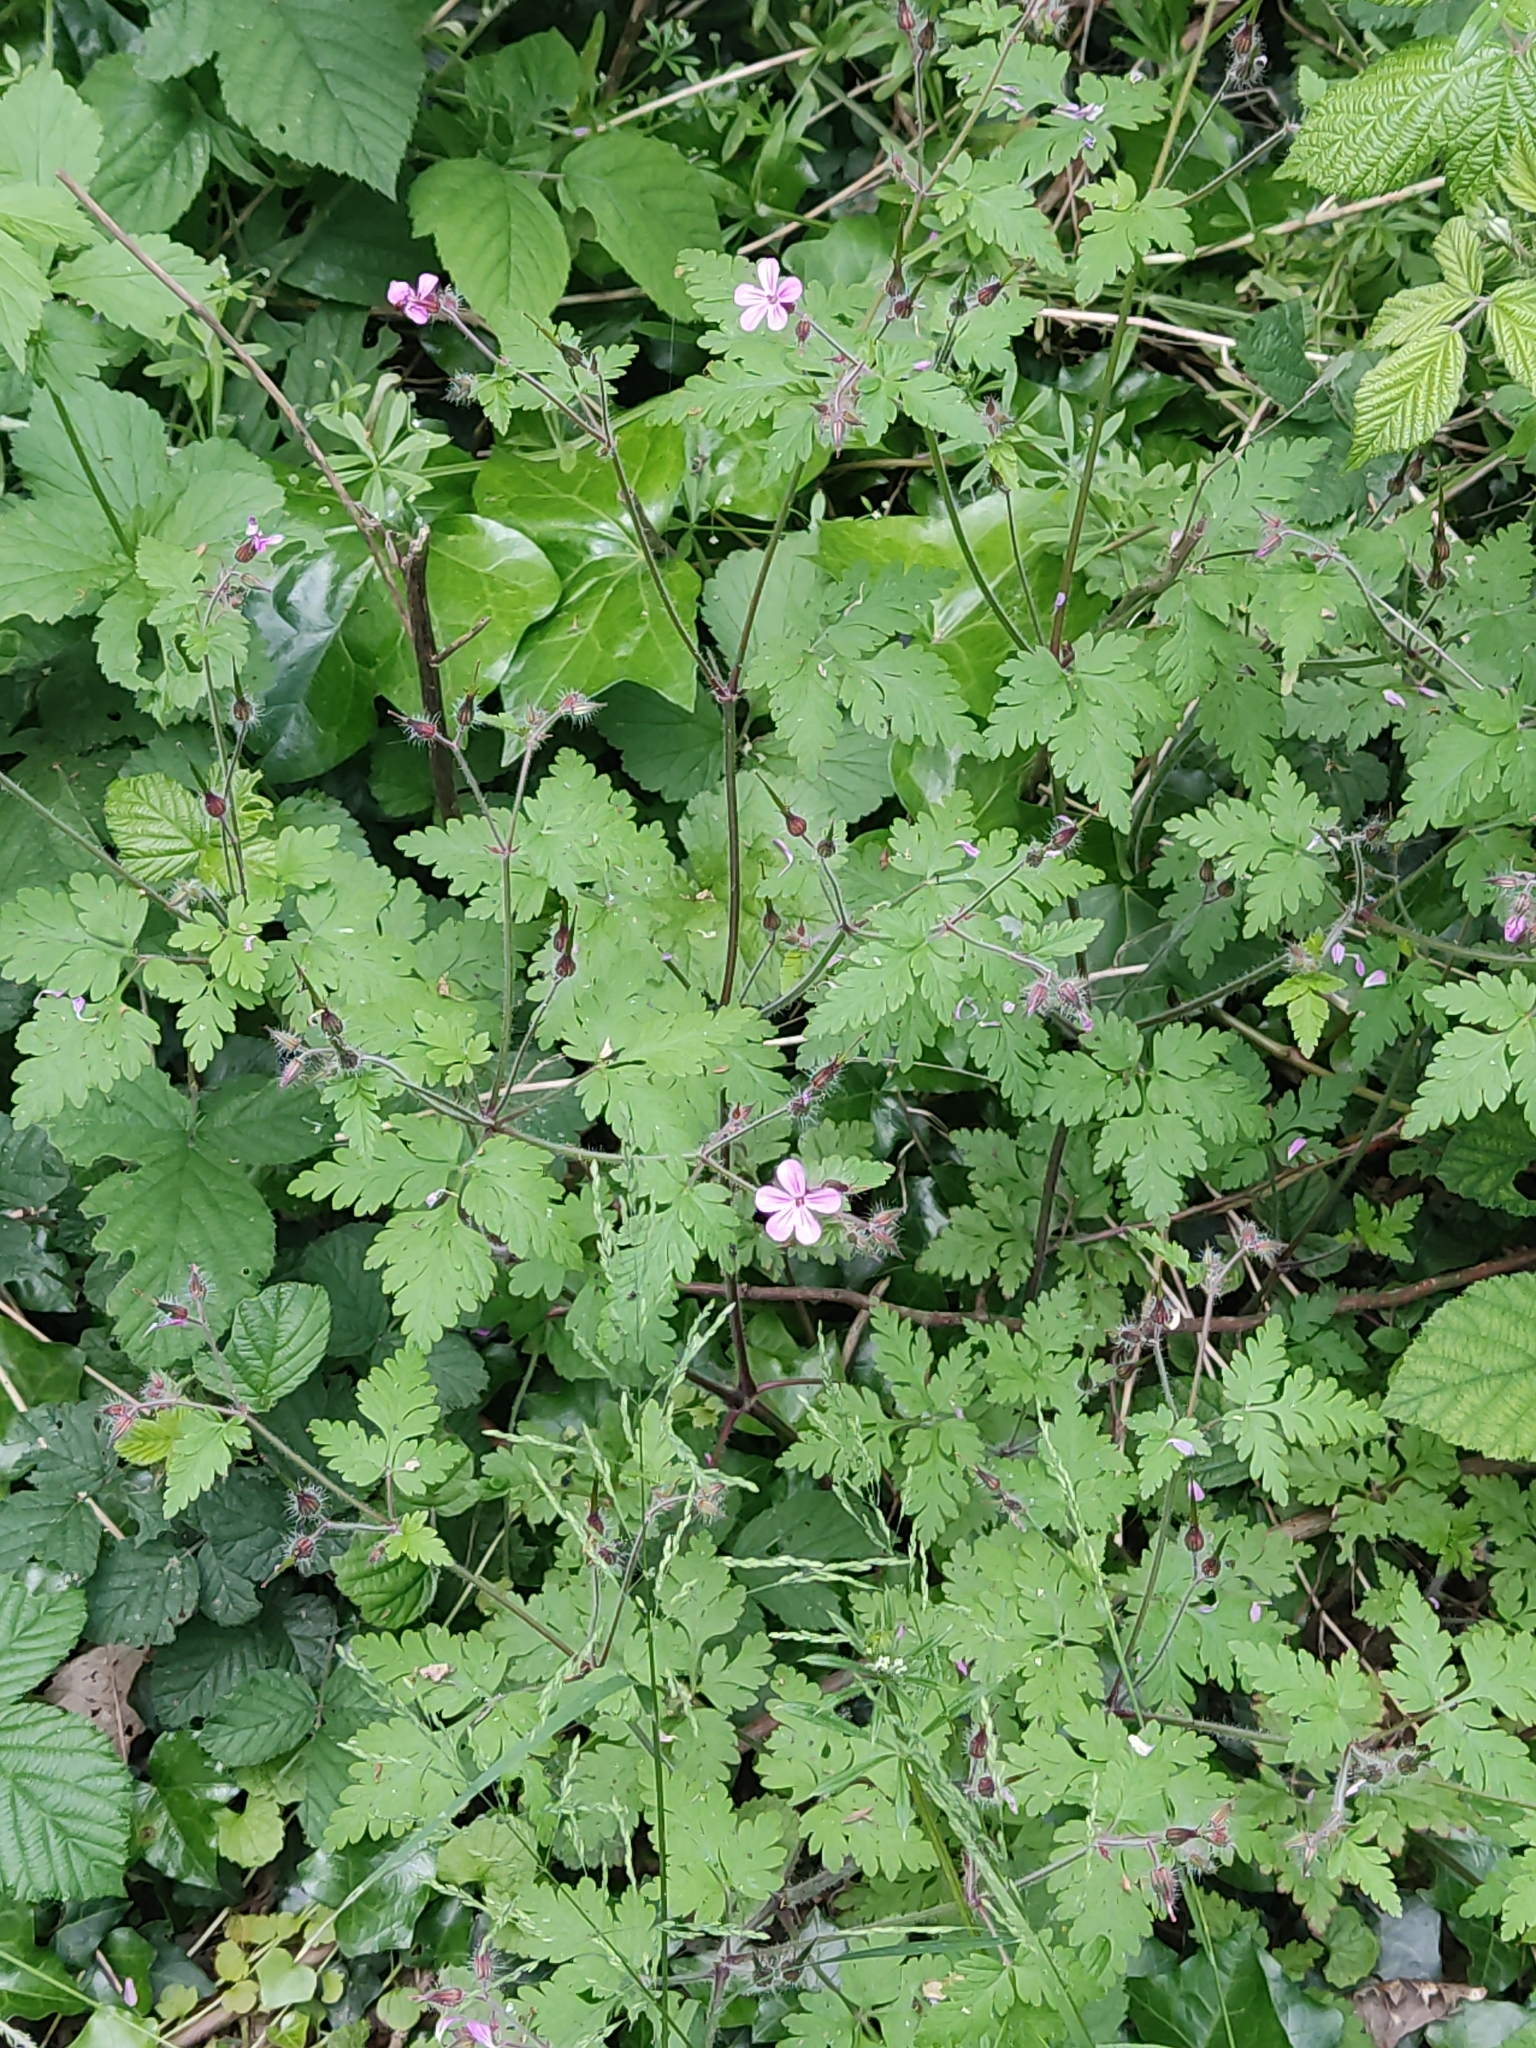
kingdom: Plantae
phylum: Tracheophyta
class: Magnoliopsida
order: Geraniales
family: Geraniaceae
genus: Geranium
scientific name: Geranium robertianum
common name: Herb-robert
